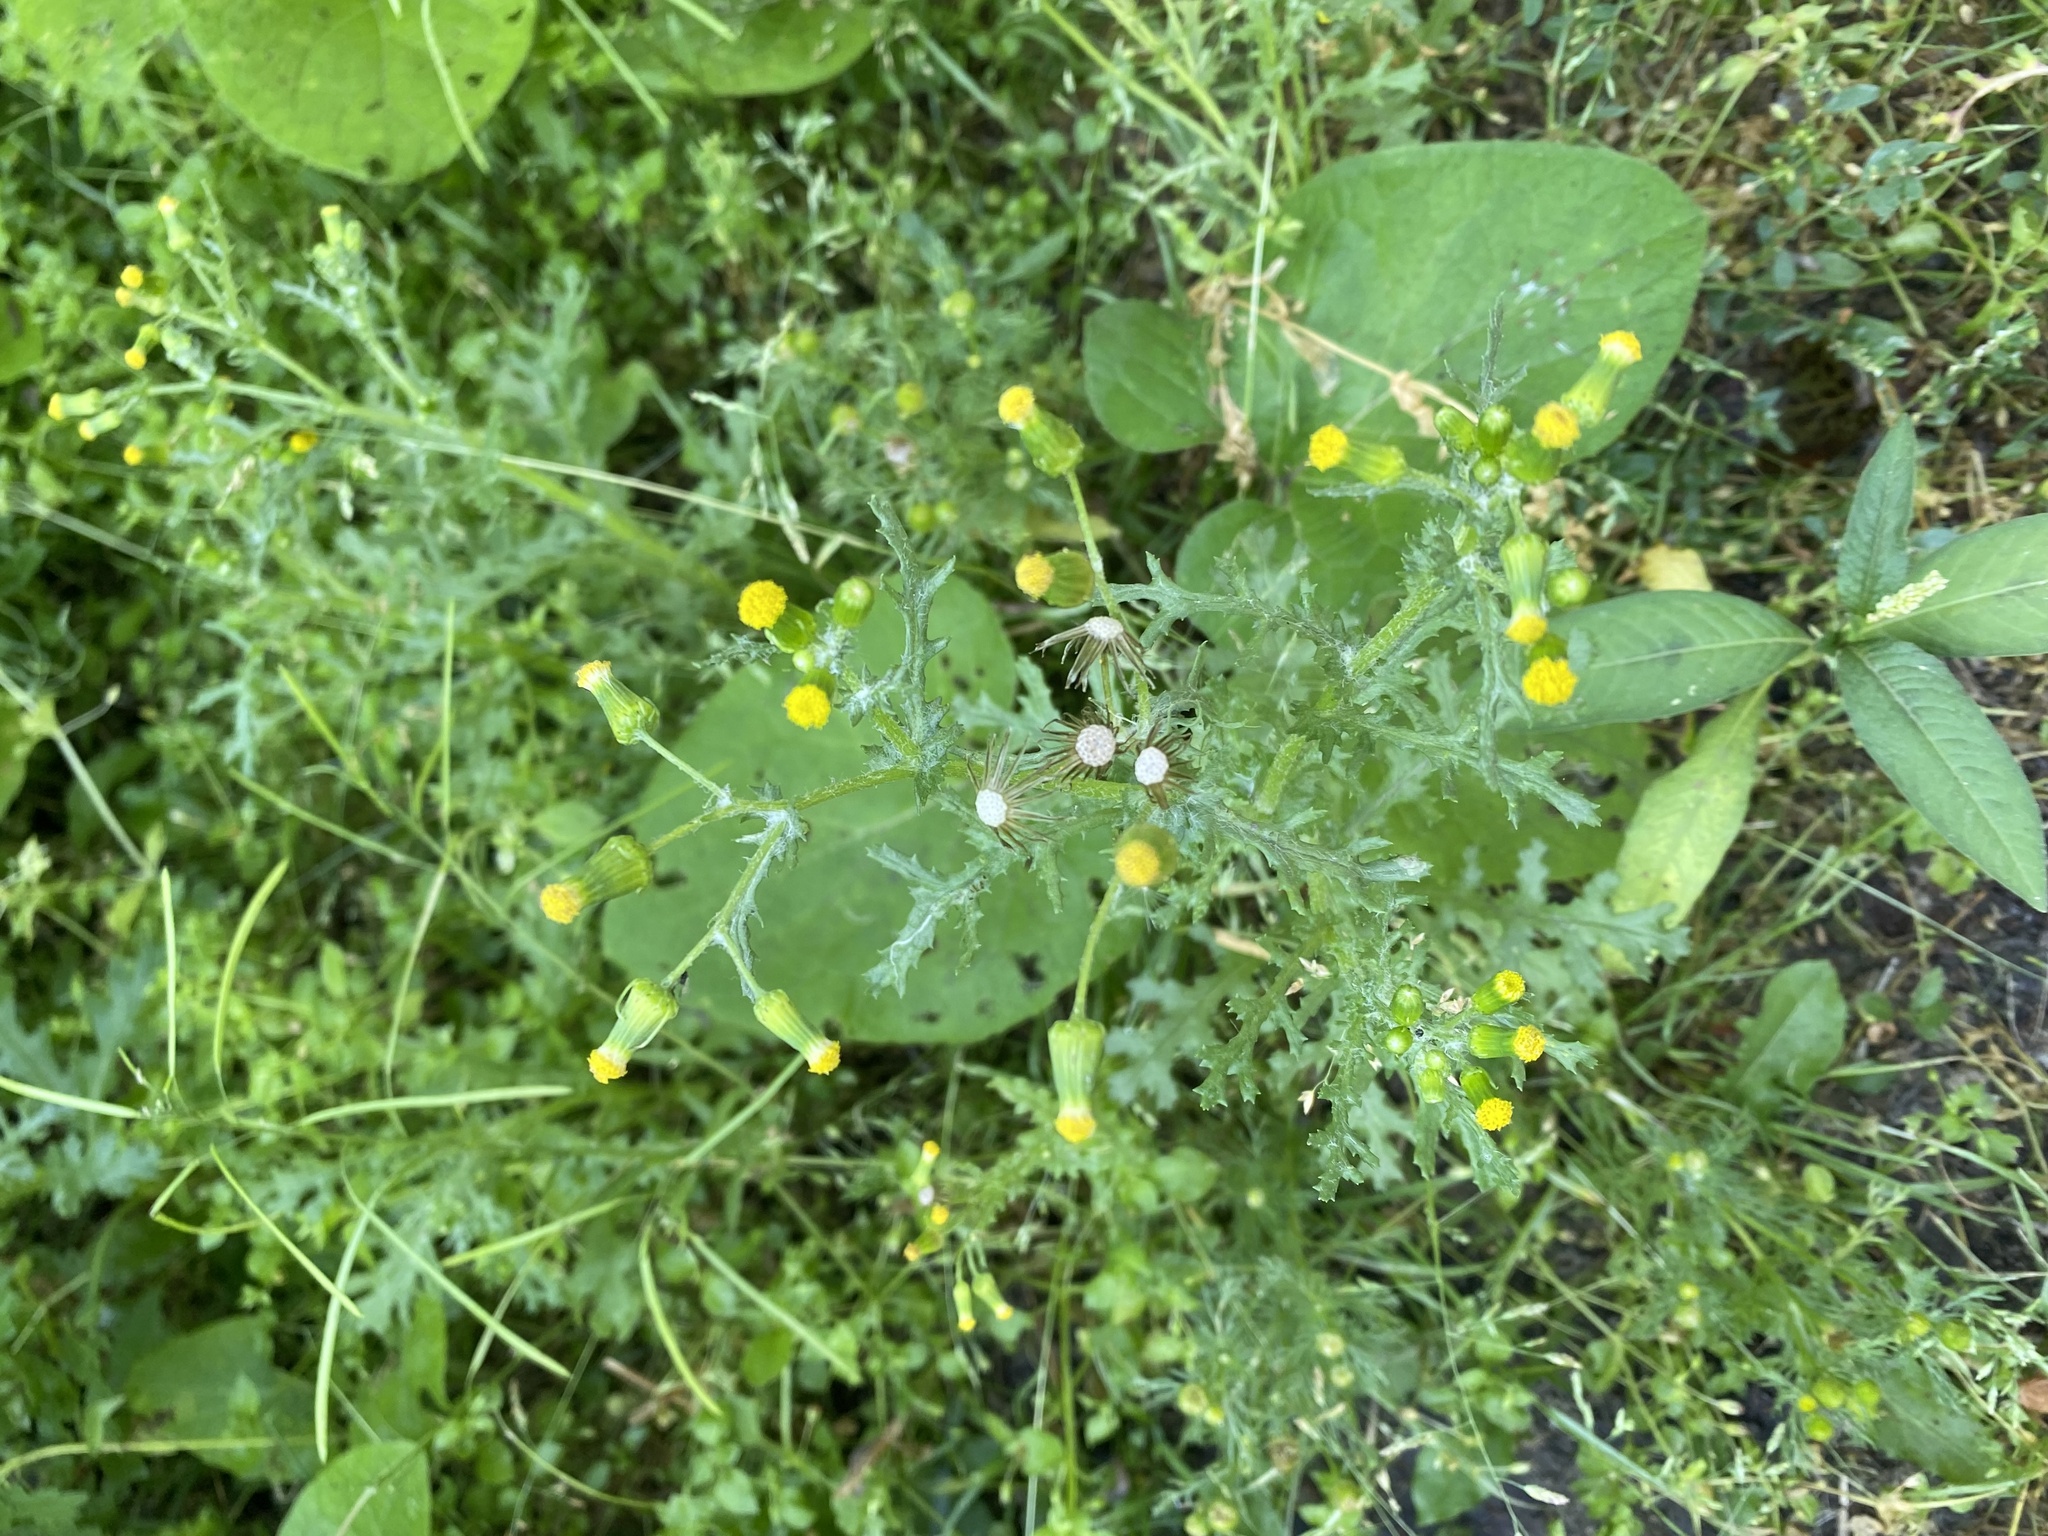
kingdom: Plantae
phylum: Tracheophyta
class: Magnoliopsida
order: Asterales
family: Asteraceae
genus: Senecio
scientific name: Senecio vulgaris
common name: Old-man-in-the-spring
